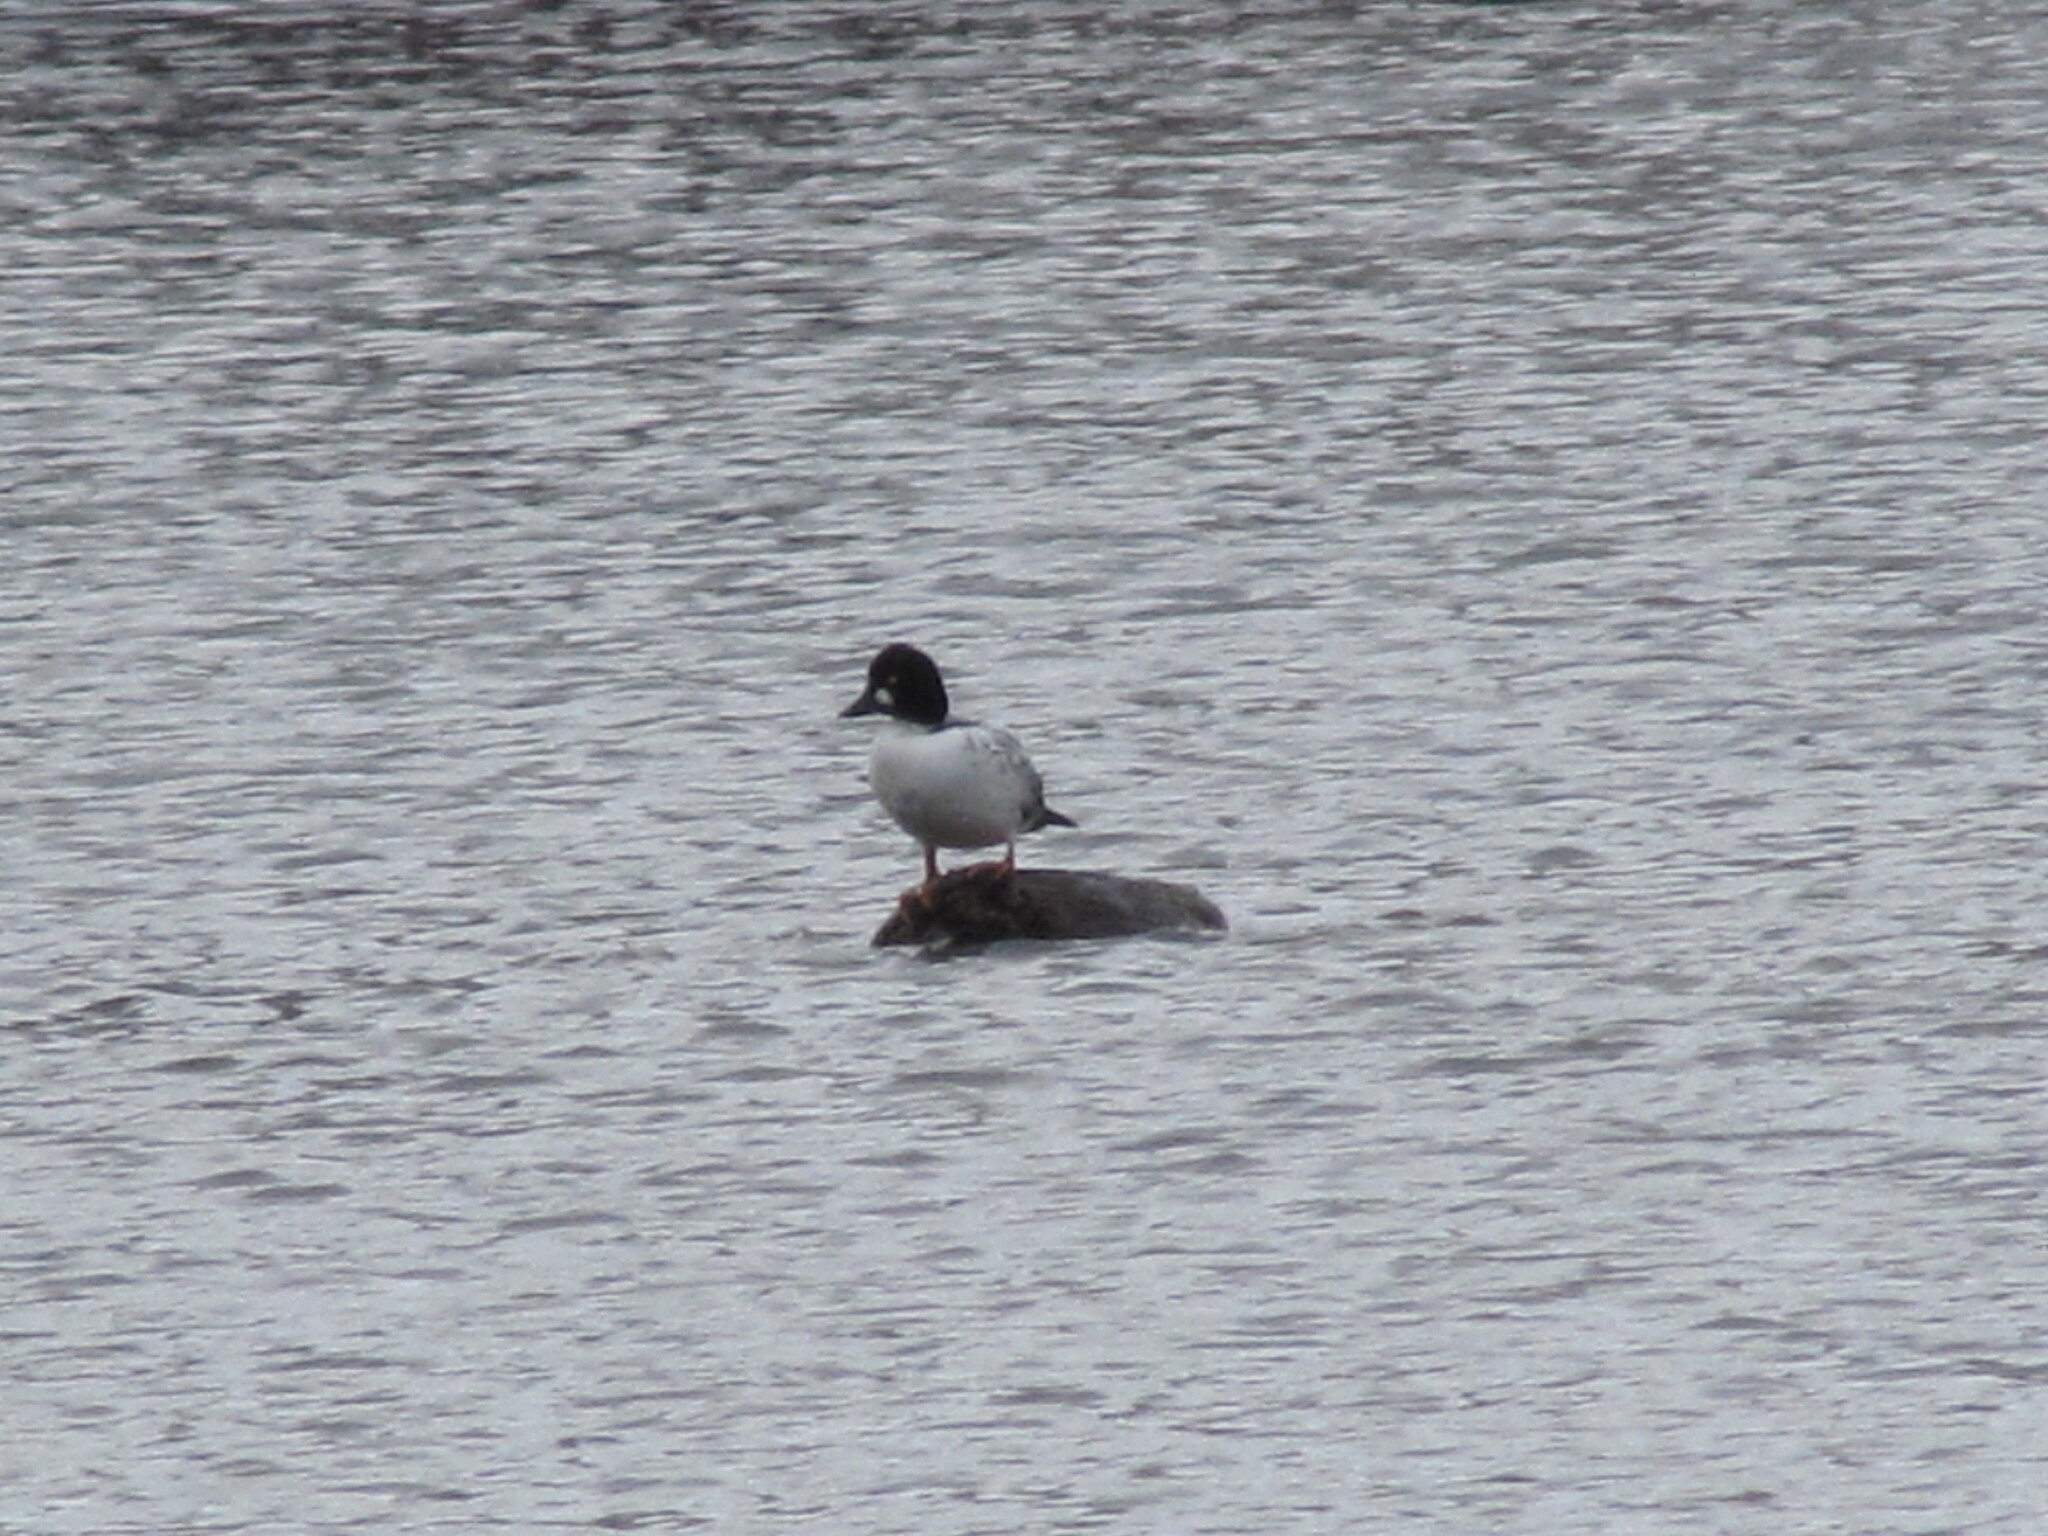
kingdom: Animalia
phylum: Chordata
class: Aves
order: Anseriformes
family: Anatidae
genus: Bucephala
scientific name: Bucephala clangula
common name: Common goldeneye
